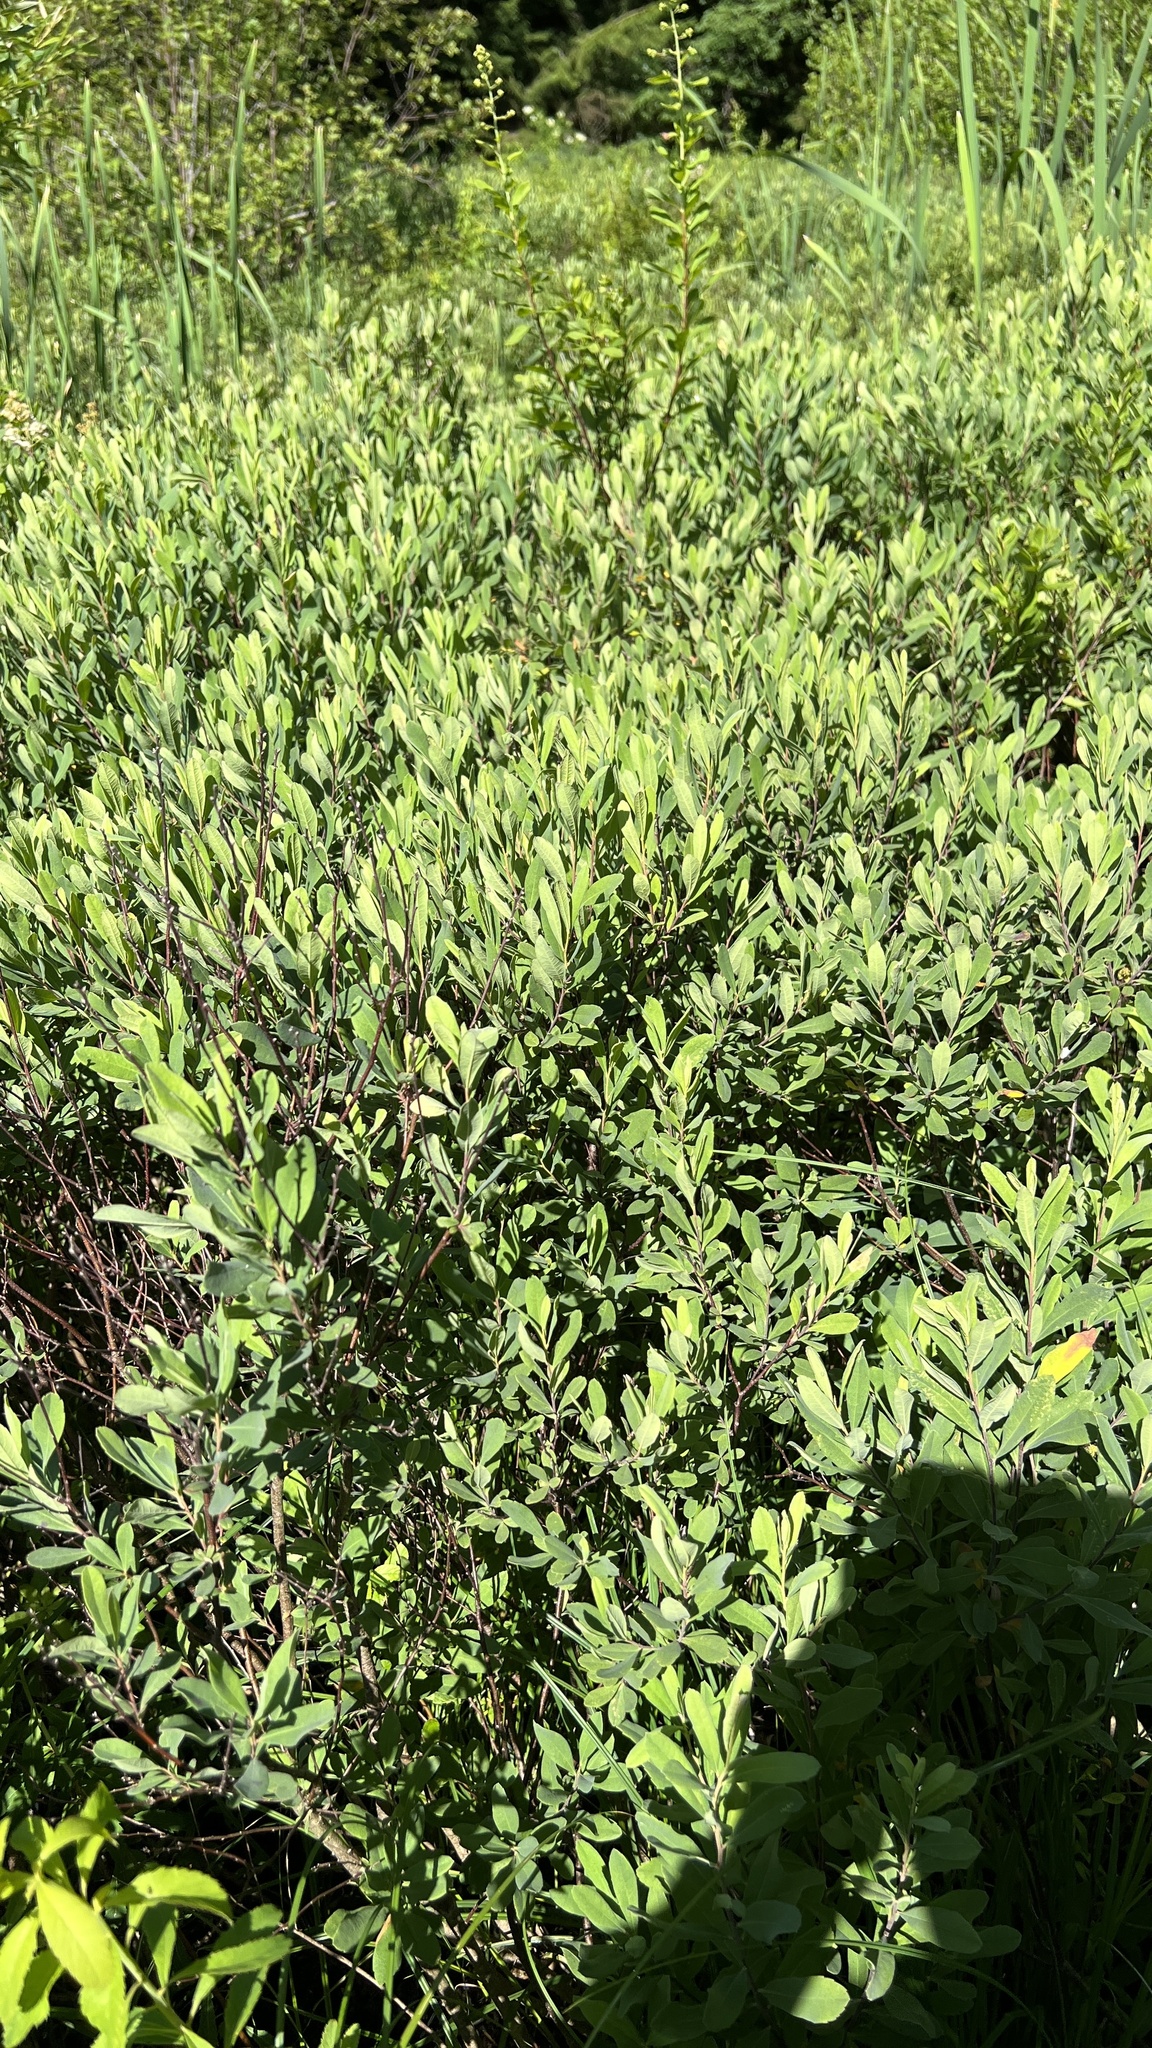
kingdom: Plantae
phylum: Tracheophyta
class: Magnoliopsida
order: Fagales
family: Myricaceae
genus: Myrica
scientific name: Myrica gale
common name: Sweet gale
